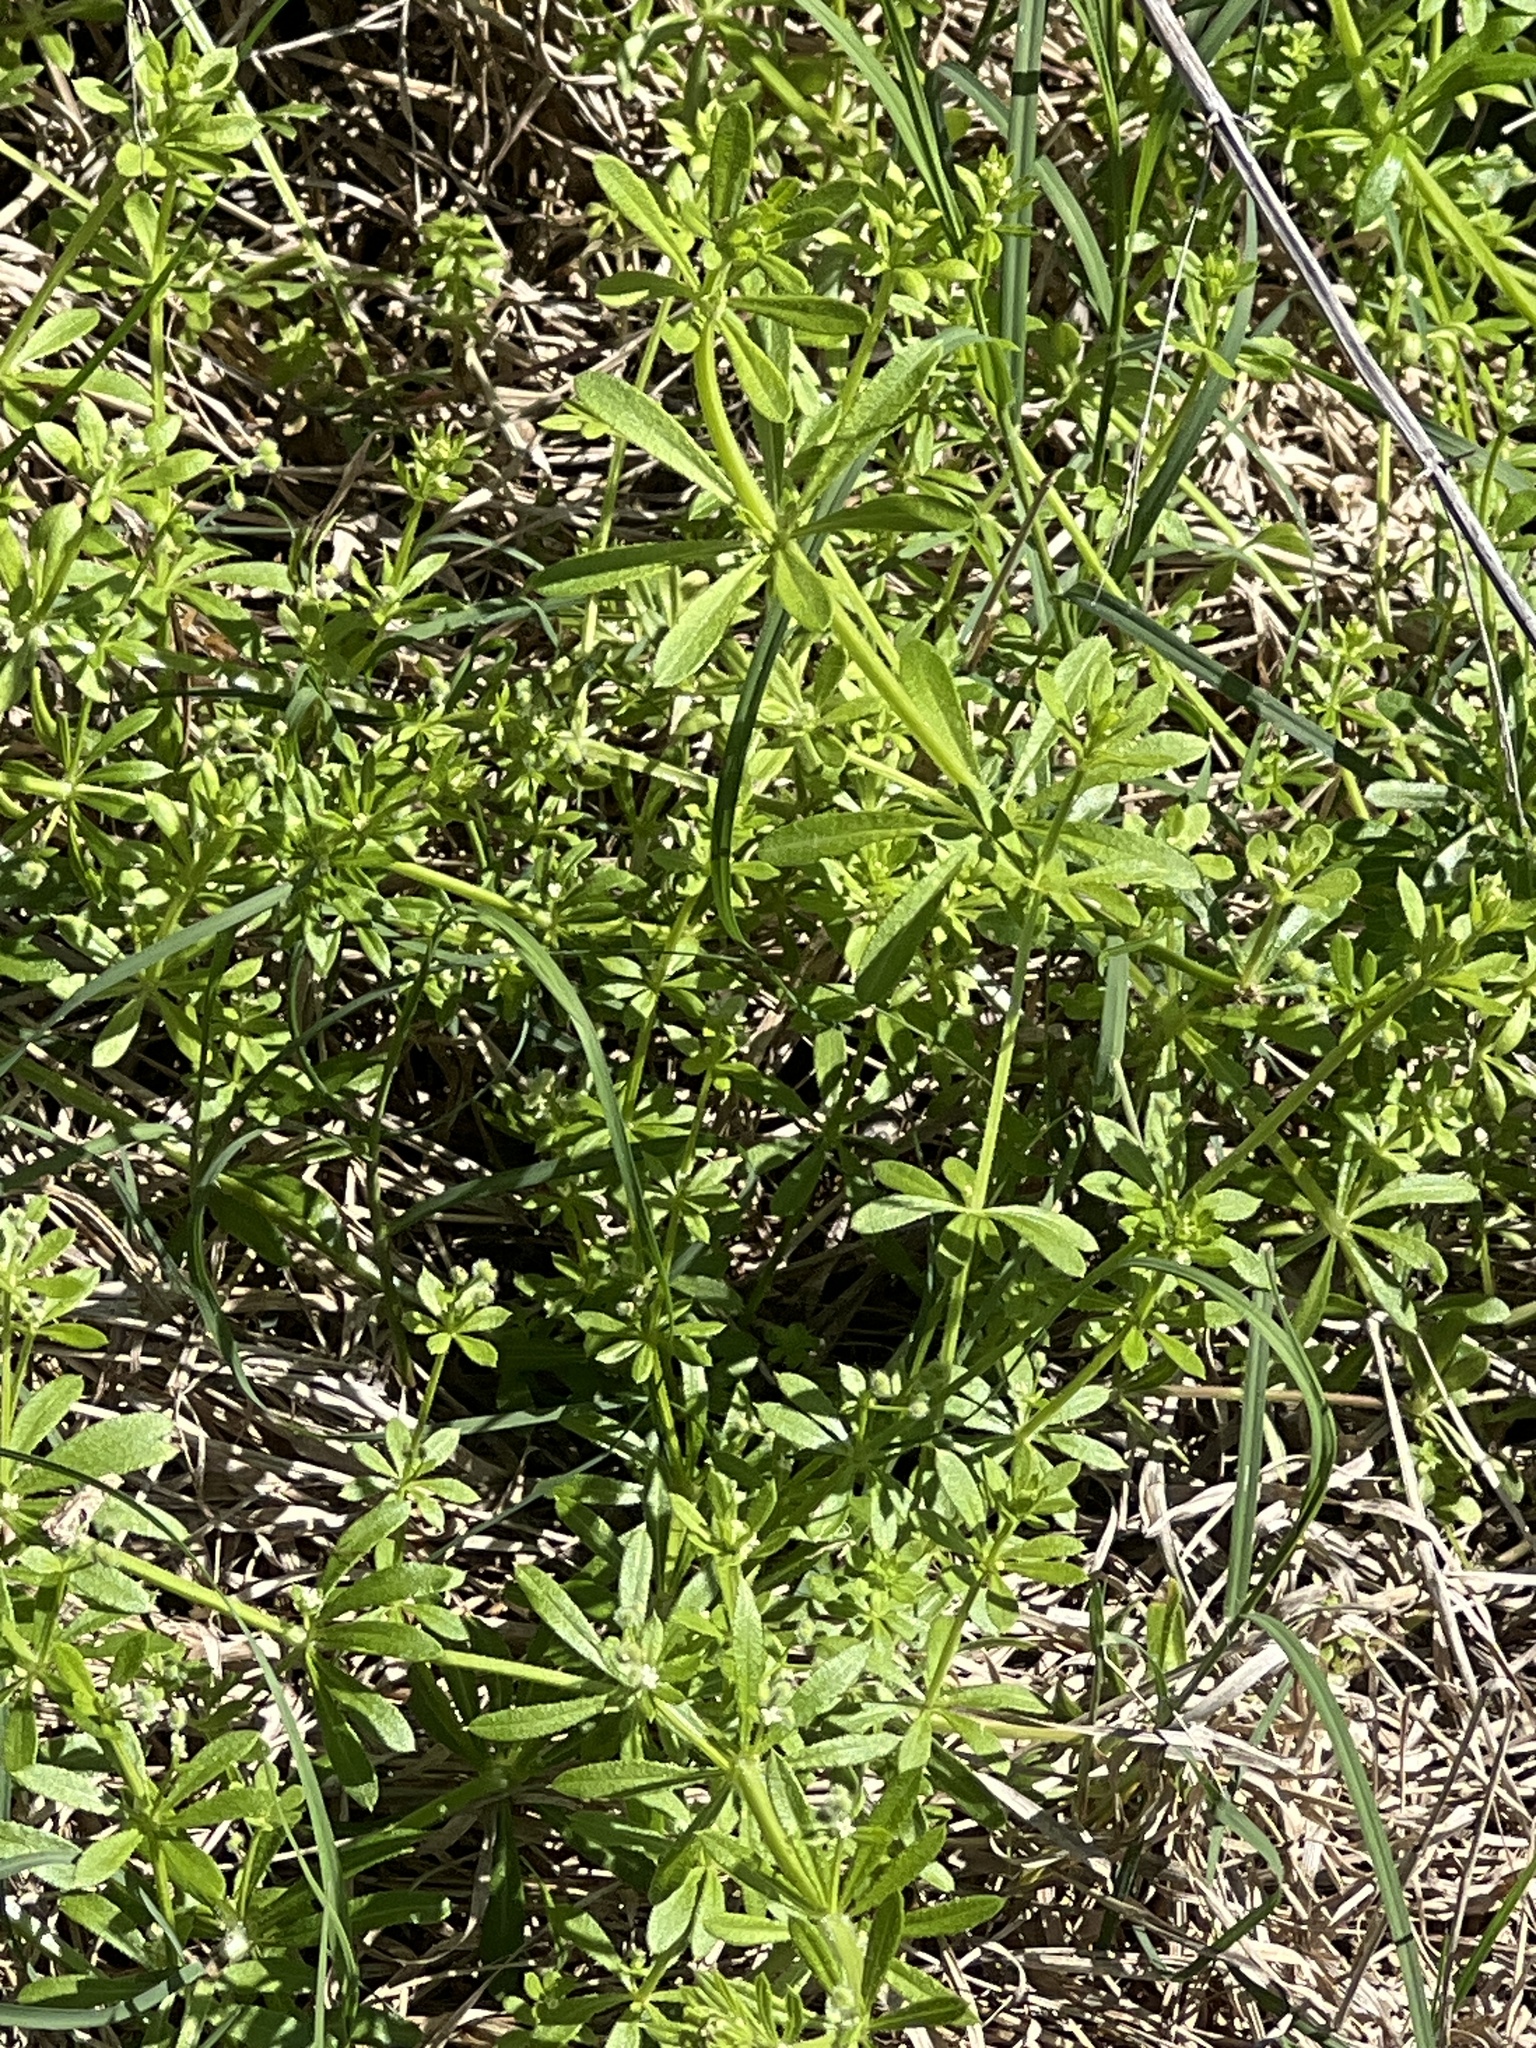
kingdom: Plantae
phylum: Tracheophyta
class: Magnoliopsida
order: Gentianales
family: Rubiaceae
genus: Galium
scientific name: Galium aparine
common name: Cleavers
